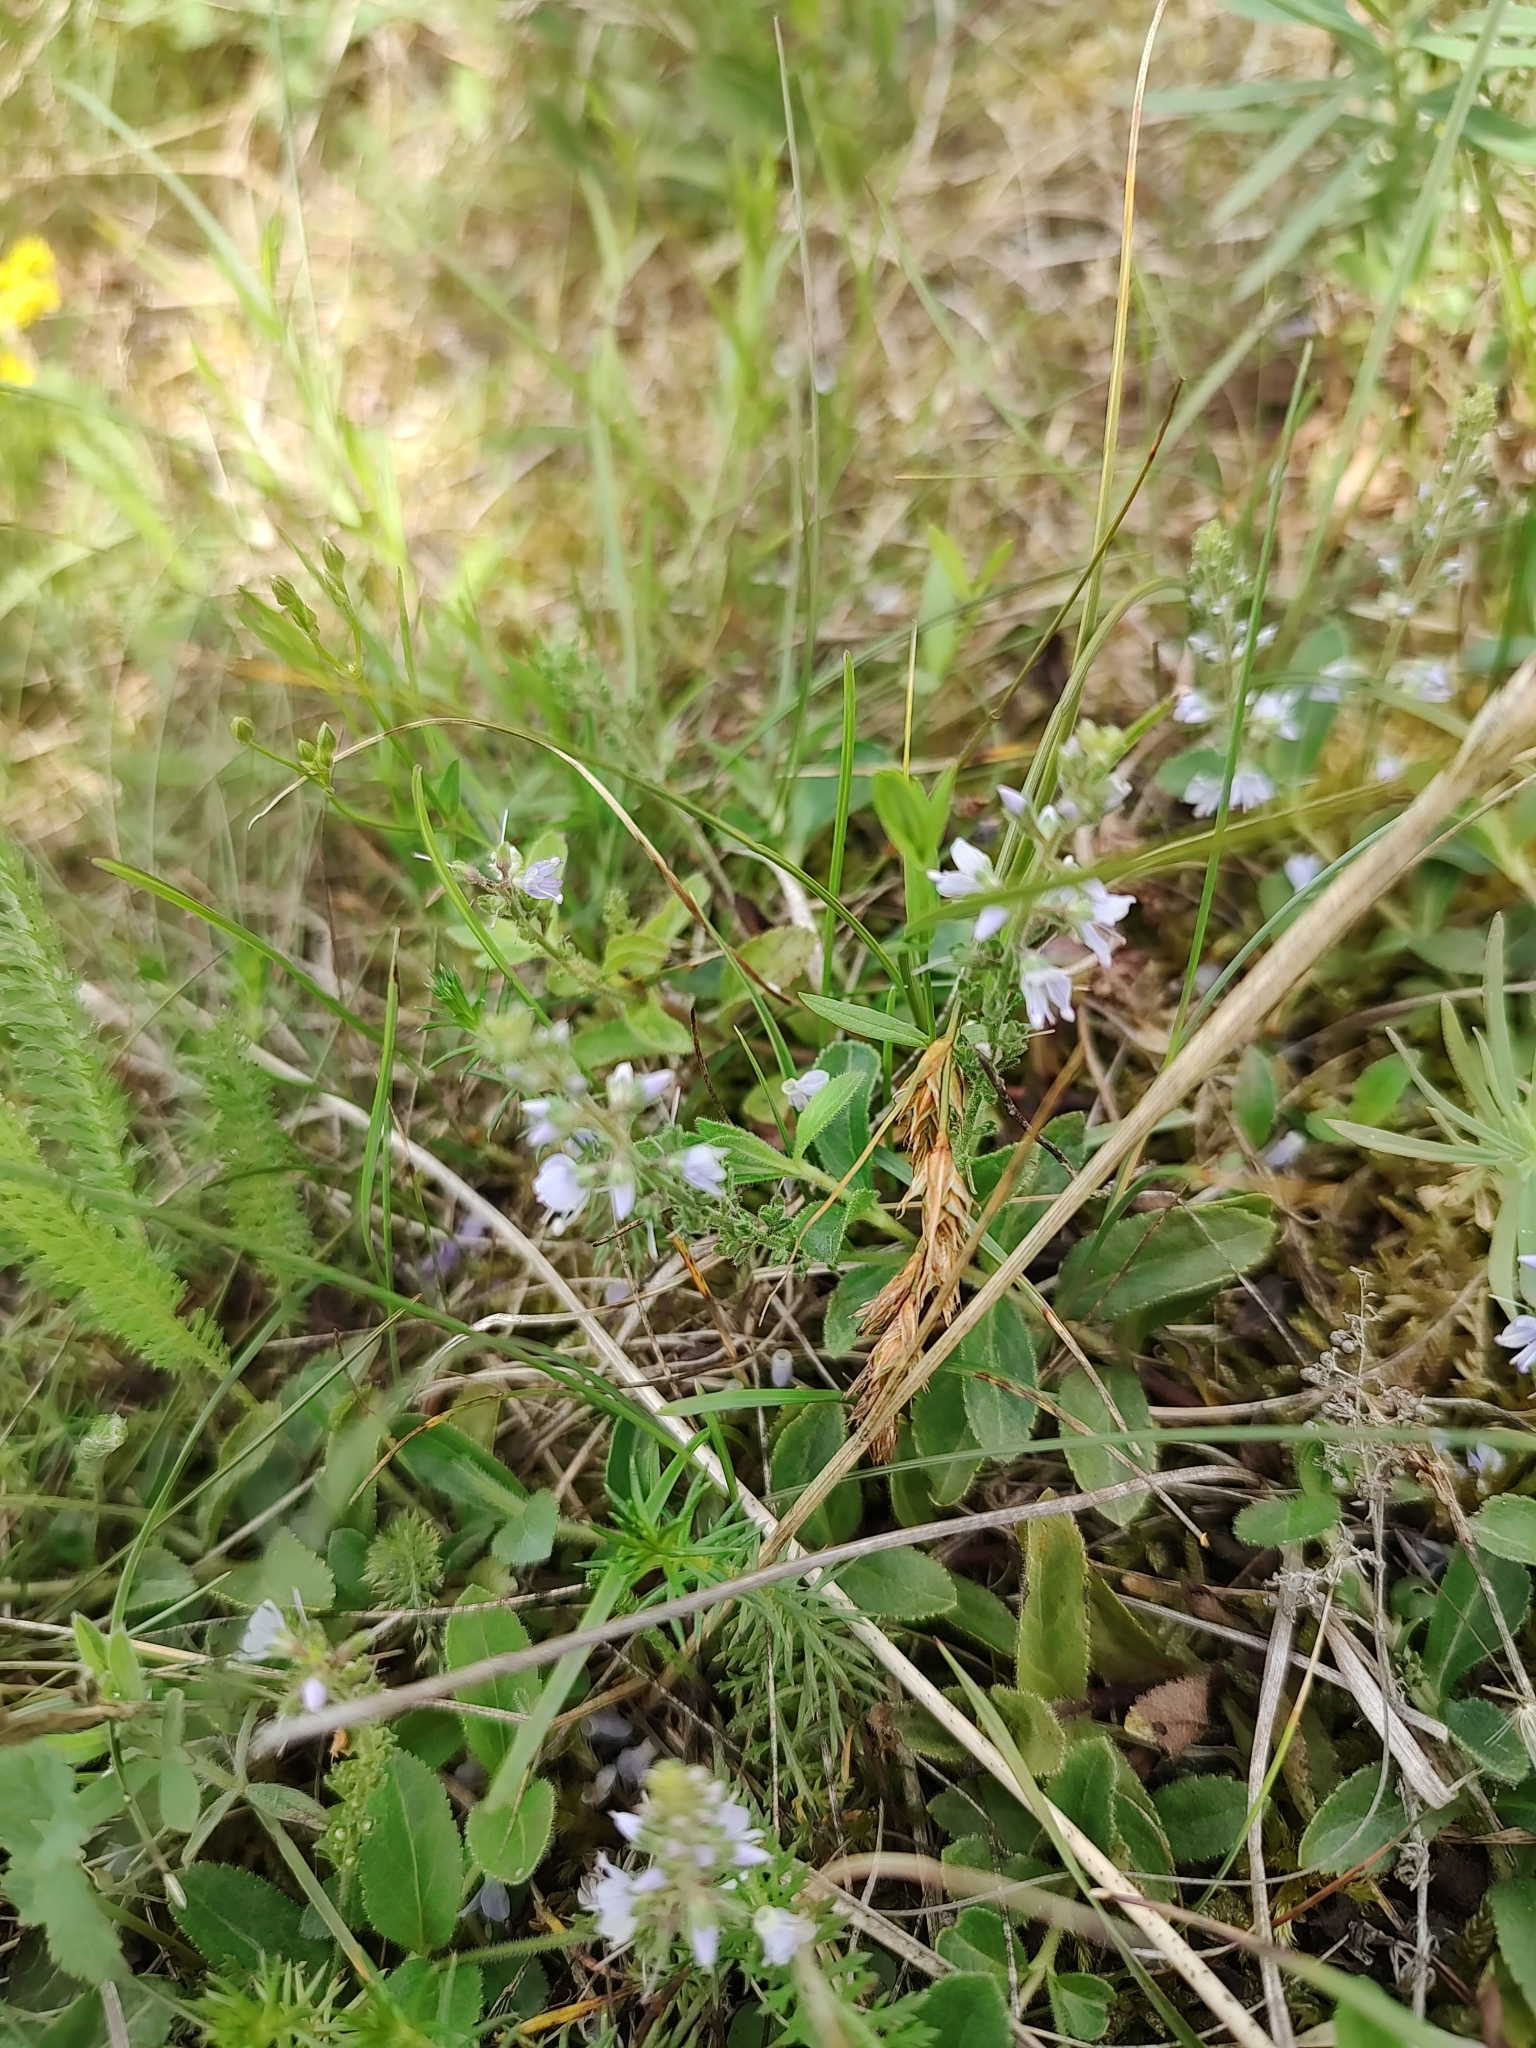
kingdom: Plantae
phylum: Tracheophyta
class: Magnoliopsida
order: Lamiales
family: Plantaginaceae
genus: Veronica
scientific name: Veronica officinalis
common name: Common speedwell
